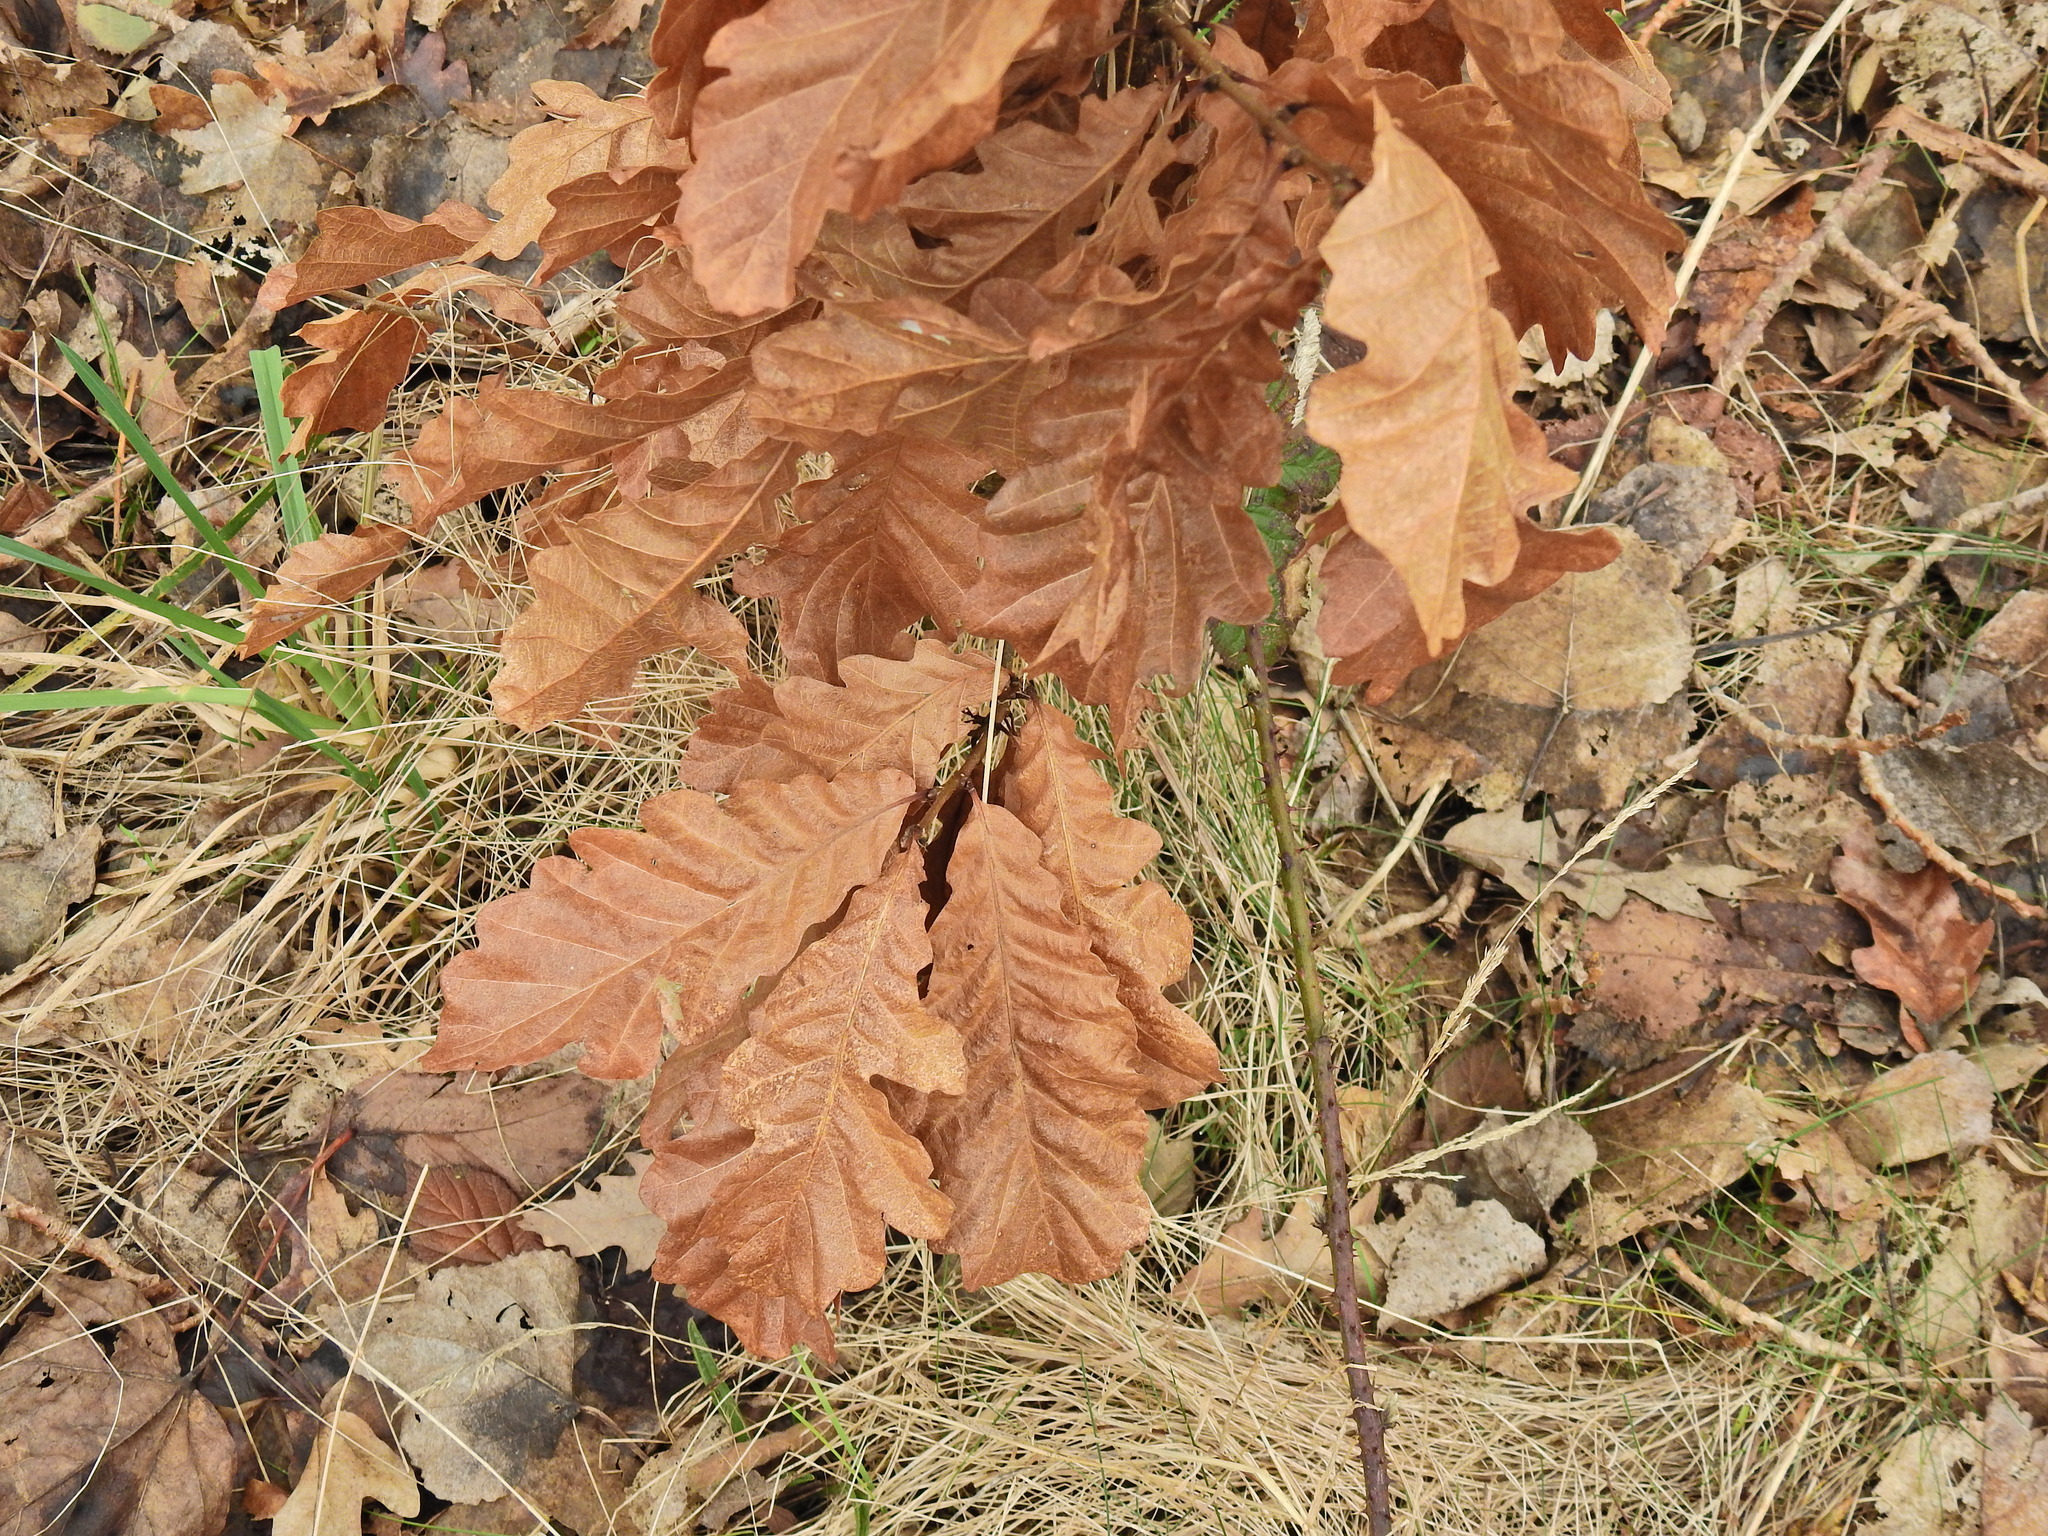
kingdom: Plantae
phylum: Tracheophyta
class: Magnoliopsida
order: Fagales
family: Fagaceae
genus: Quercus
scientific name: Quercus robur
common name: Pedunculate oak
